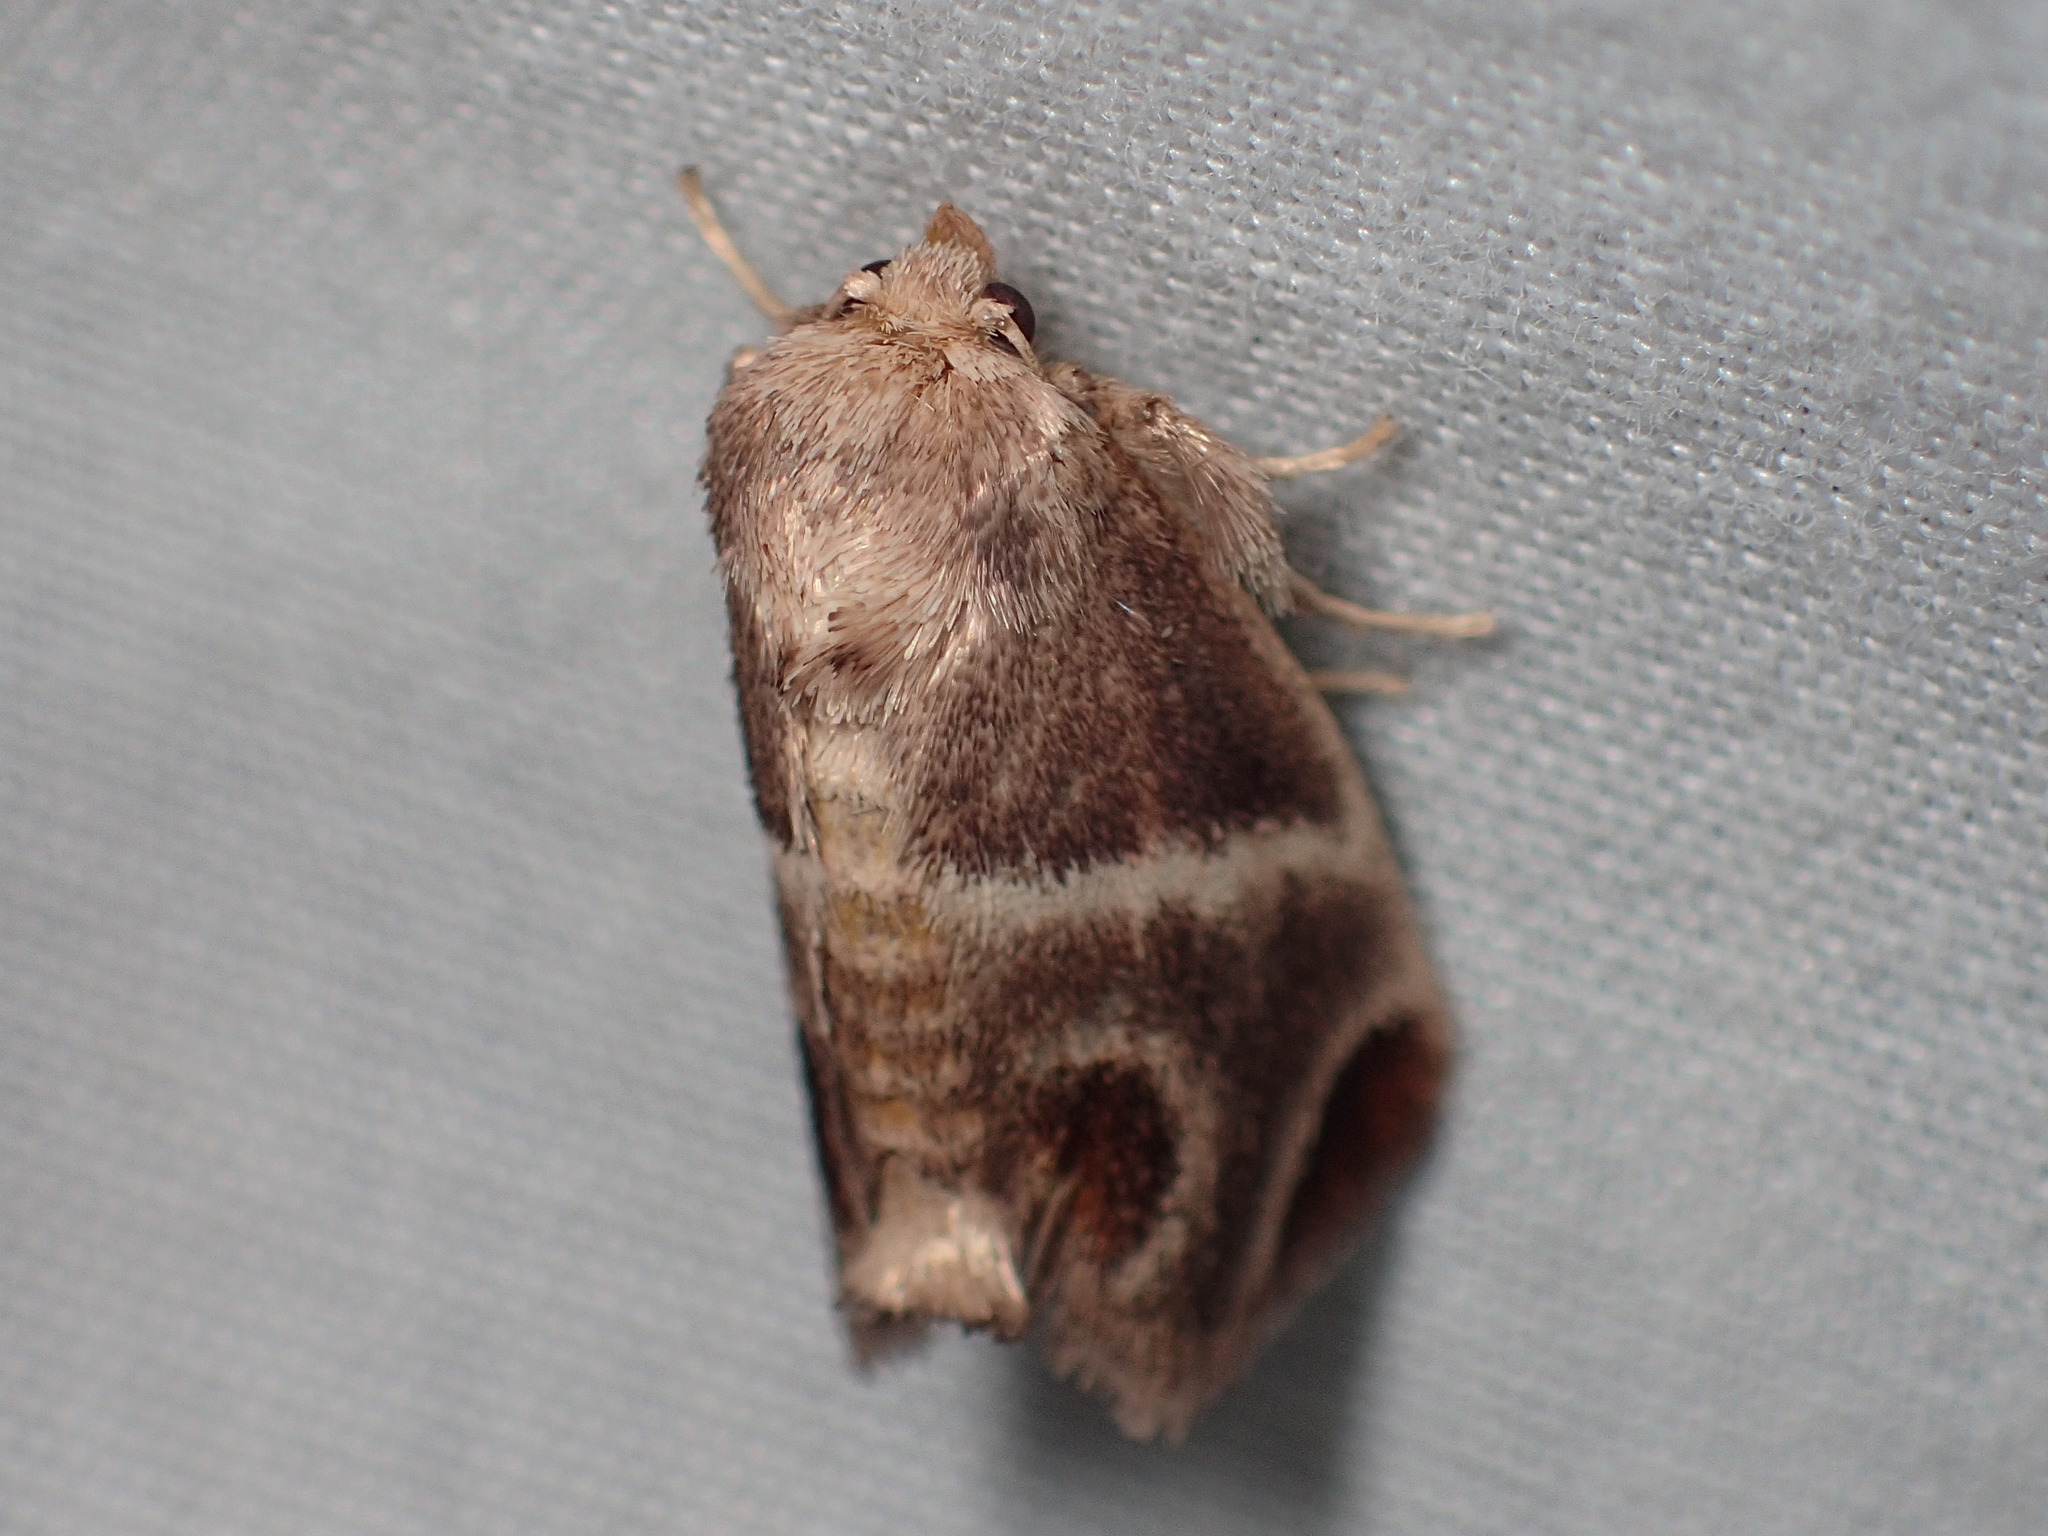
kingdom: Animalia
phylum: Arthropoda
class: Insecta
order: Lepidoptera
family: Limacodidae
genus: Apoda
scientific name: Apoda biguttata
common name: Shagreened slug moth
